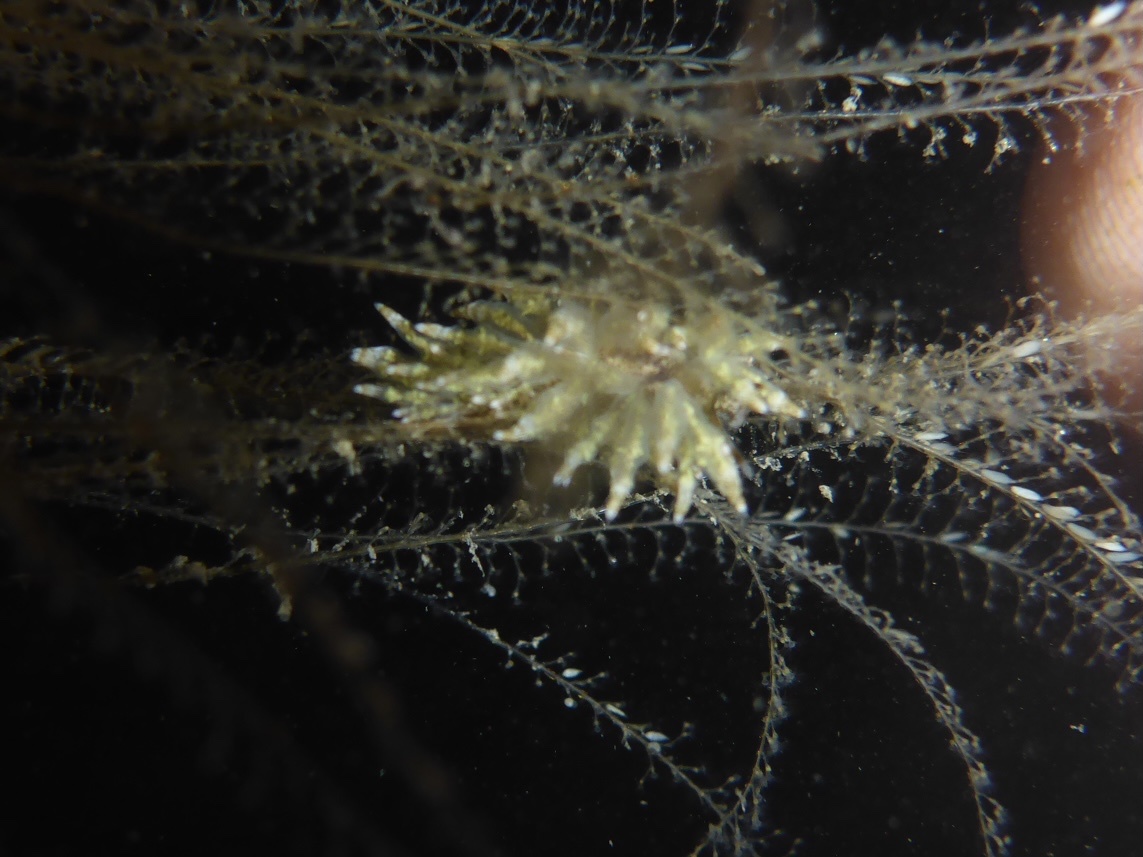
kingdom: Animalia
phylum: Mollusca
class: Gastropoda
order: Nudibranchia
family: Eubranchidae
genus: Eubranchus
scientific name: Eubranchus rustyus
